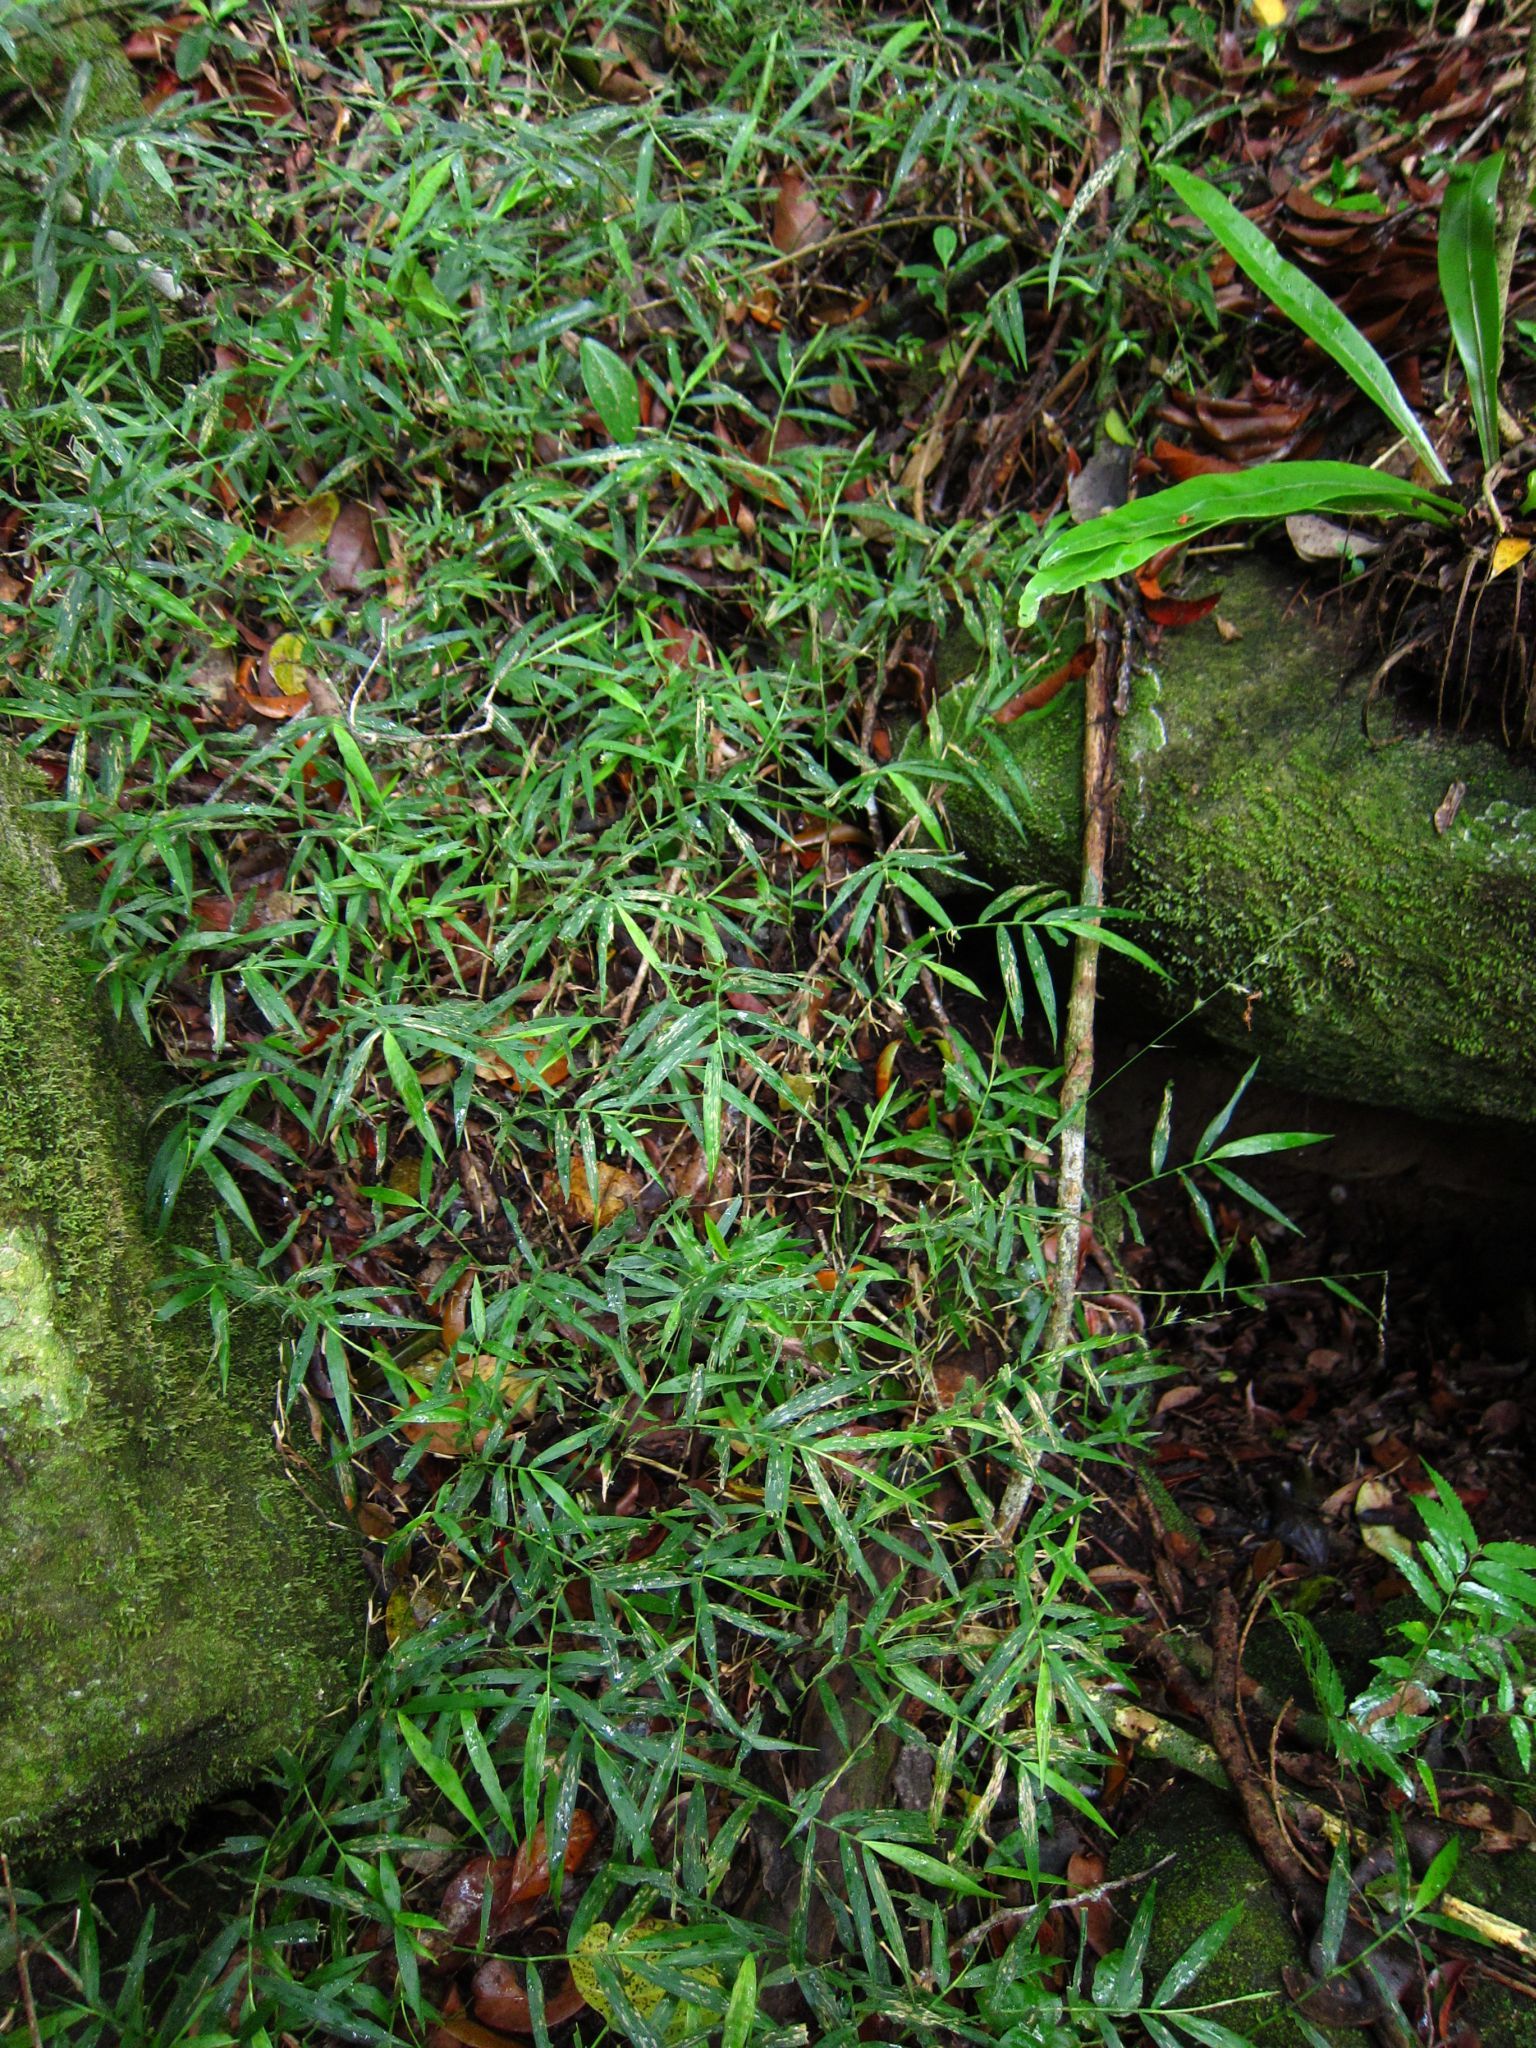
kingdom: Plantae
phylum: Tracheophyta
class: Liliopsida
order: Poales
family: Poaceae
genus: Oplismenus
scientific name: Oplismenus flavicomus
